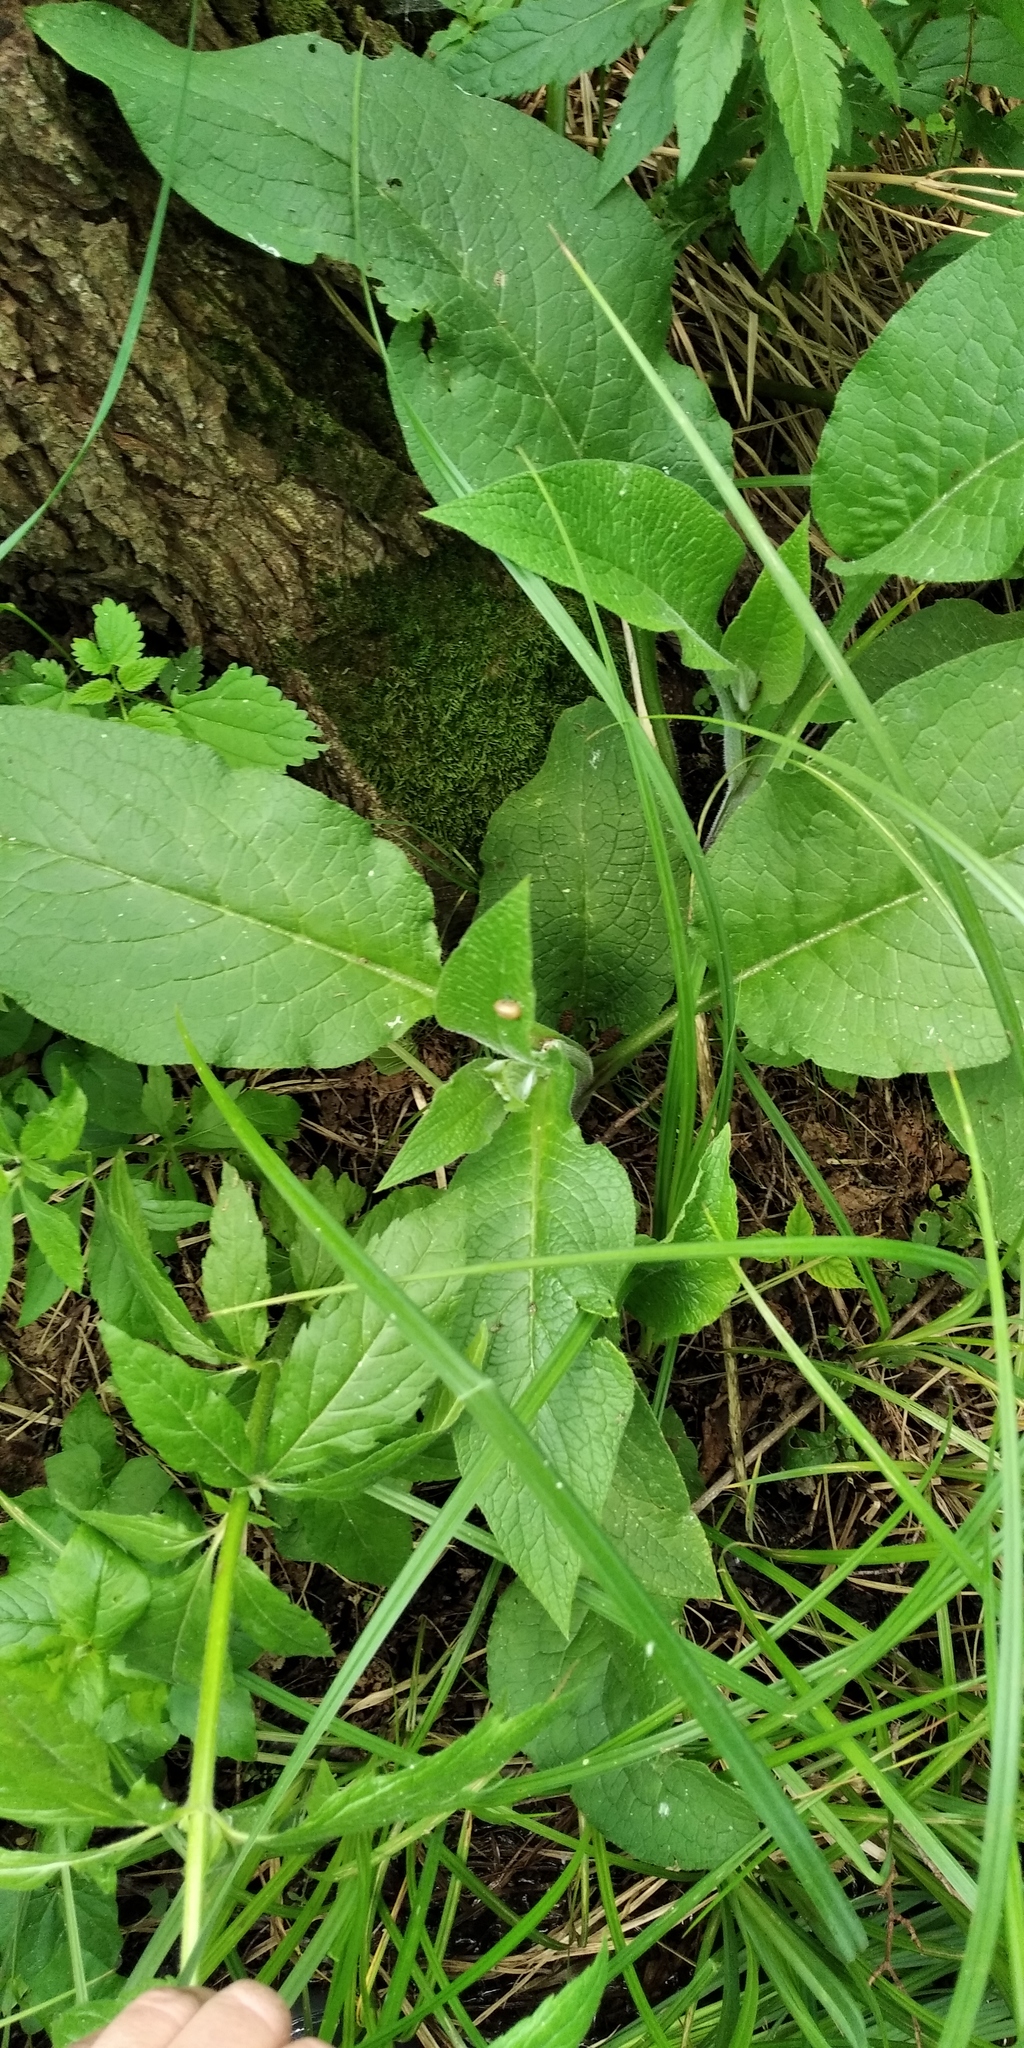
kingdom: Plantae
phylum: Tracheophyta
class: Magnoliopsida
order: Boraginales
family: Boraginaceae
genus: Symphytum
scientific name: Symphytum officinale
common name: Common comfrey
